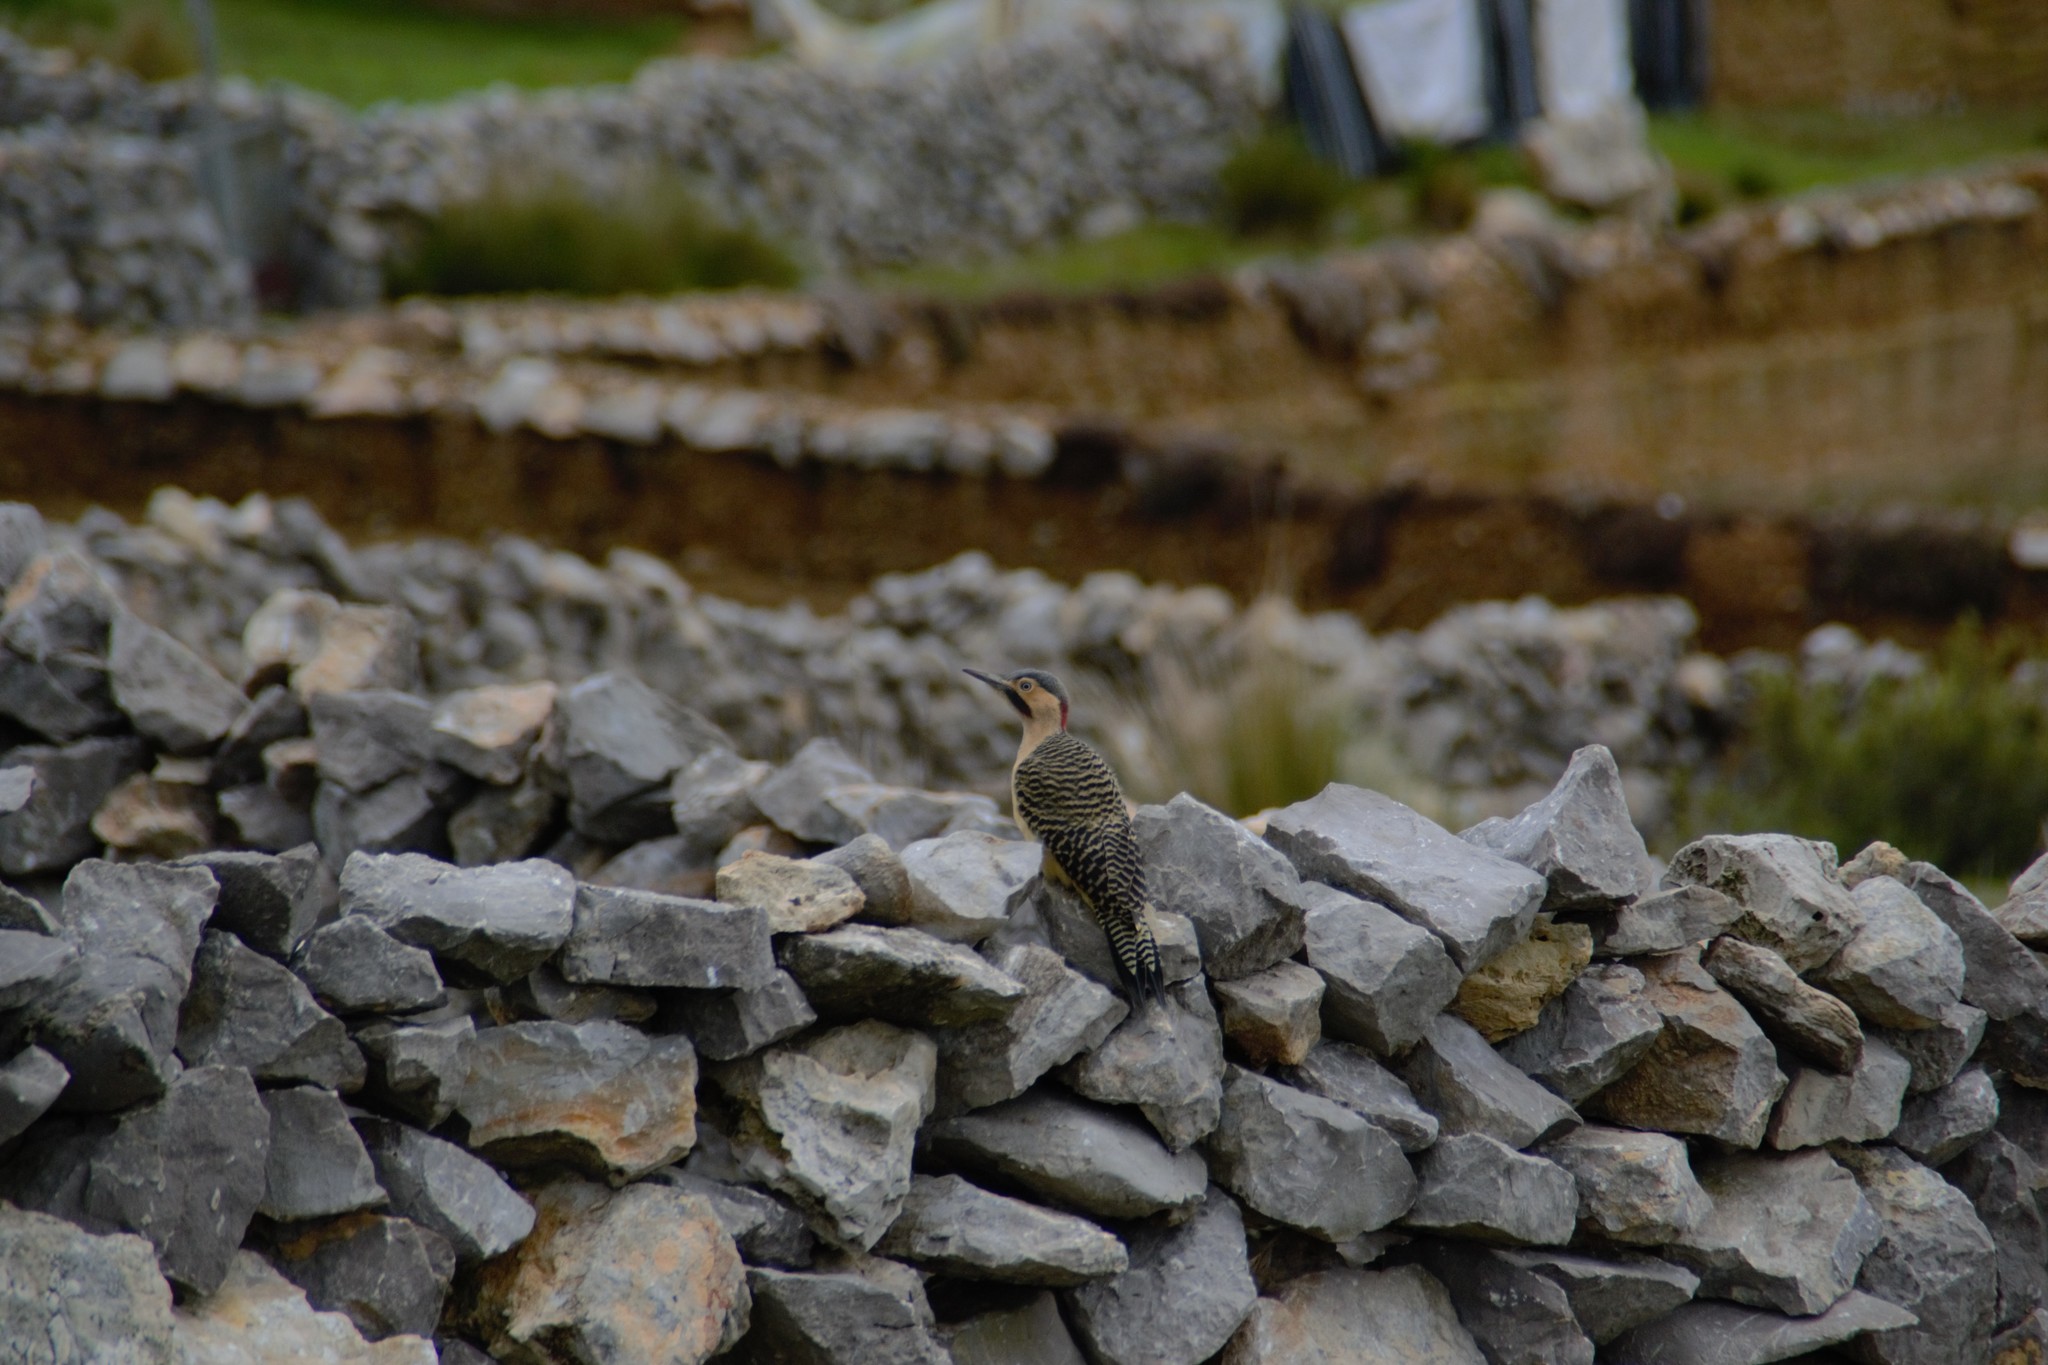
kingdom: Animalia
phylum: Chordata
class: Aves
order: Piciformes
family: Picidae
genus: Colaptes
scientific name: Colaptes rupicola
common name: Andean flicker
